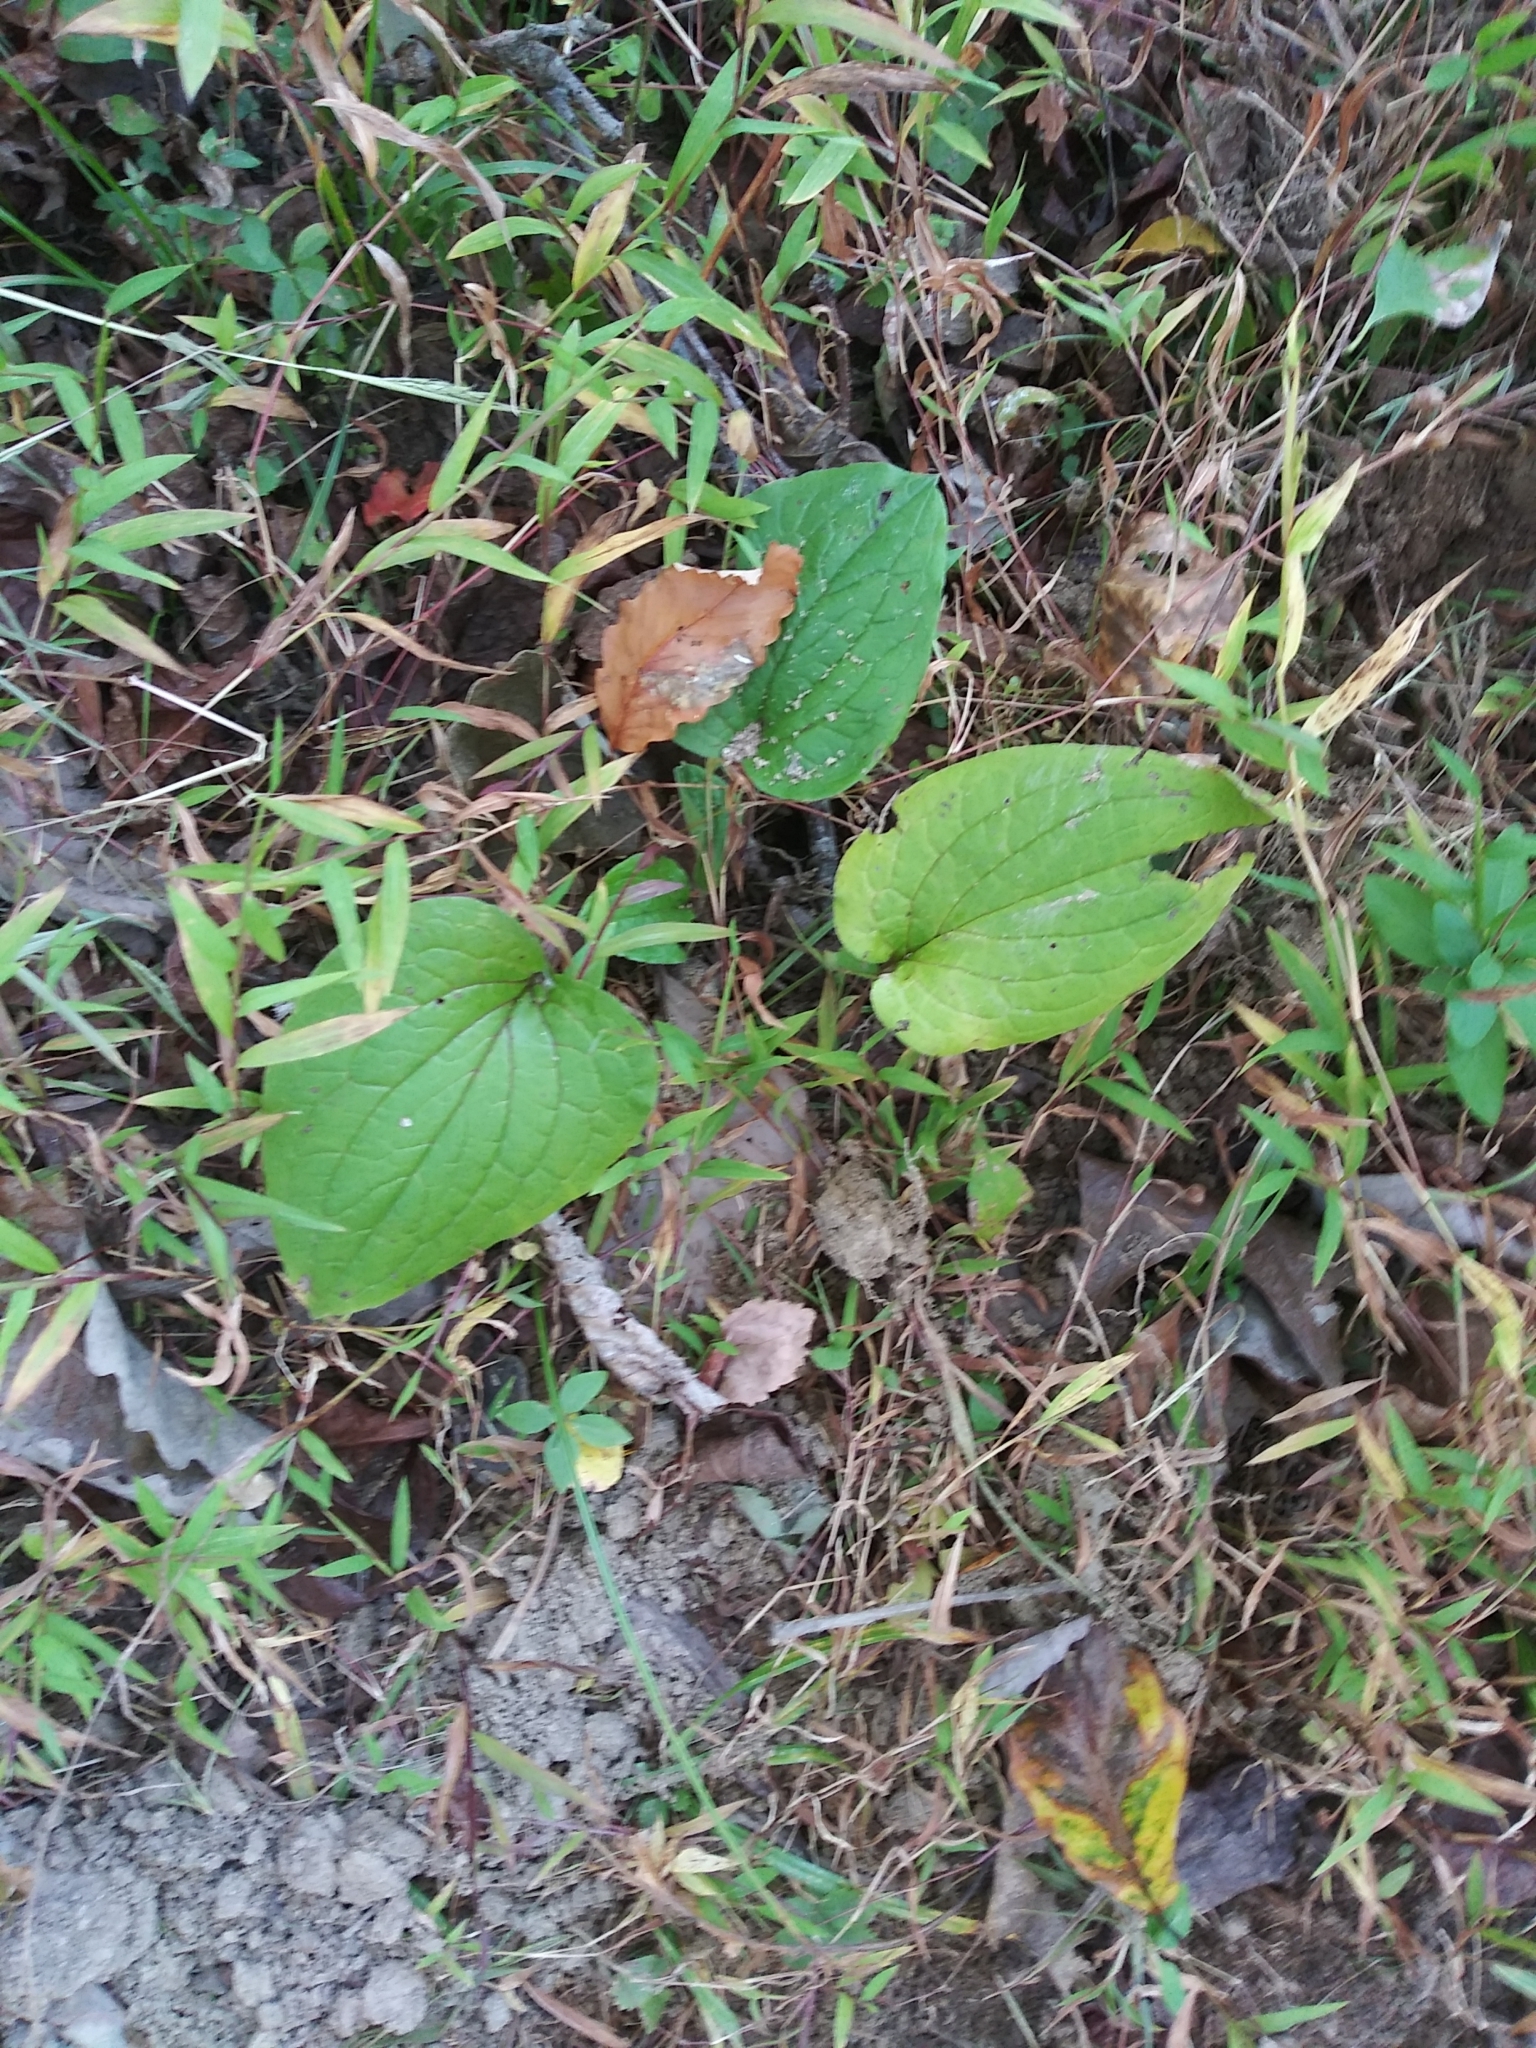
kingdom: Plantae
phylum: Tracheophyta
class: Magnoliopsida
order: Boraginales
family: Boraginaceae
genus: Hackelia
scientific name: Hackelia virginiana
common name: Beggar's-lice
